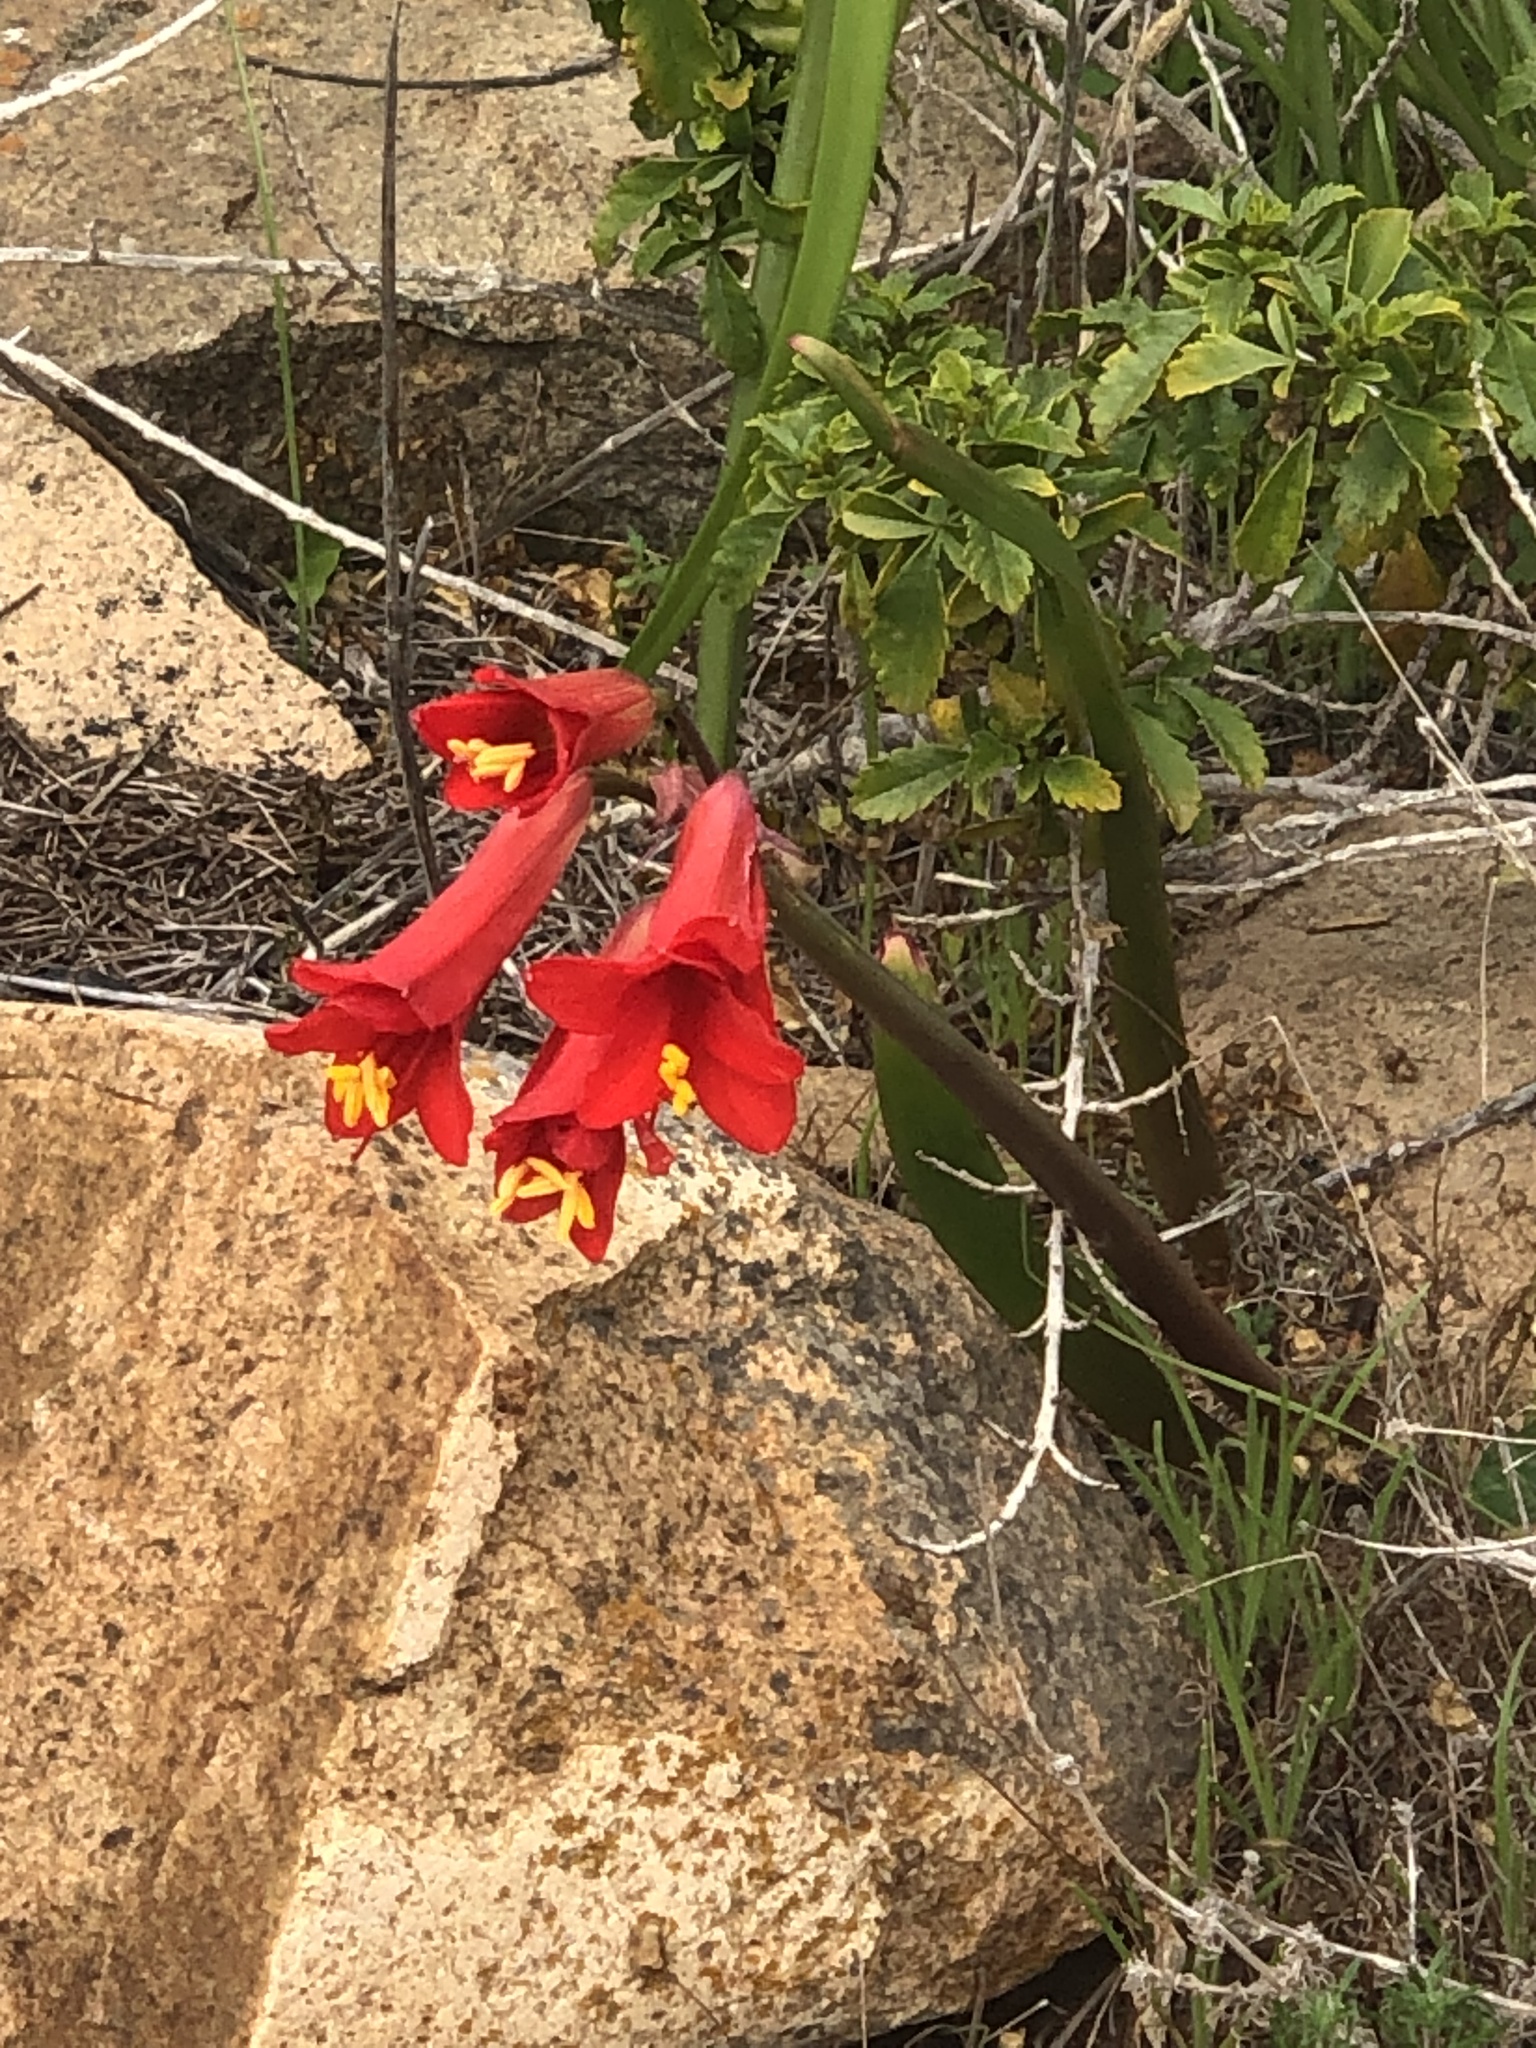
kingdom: Plantae
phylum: Tracheophyta
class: Liliopsida
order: Asparagales
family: Amaryllidaceae
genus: Phycella
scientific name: Phycella cyrtanthoides
